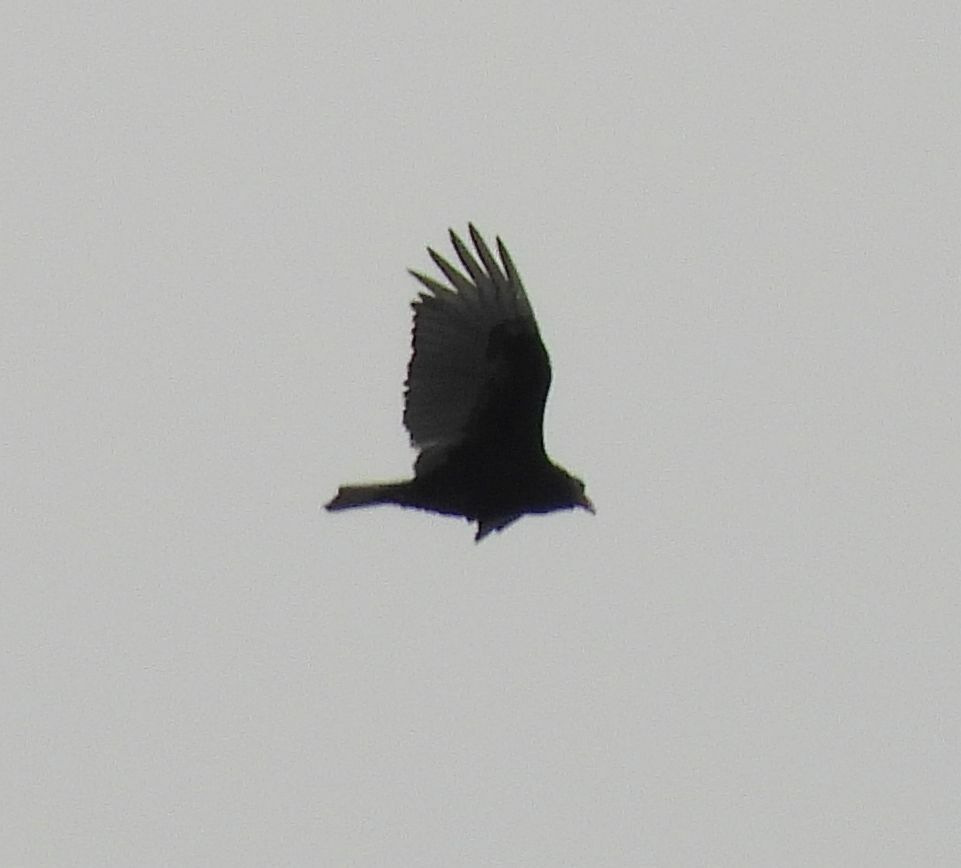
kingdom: Animalia
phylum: Chordata
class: Aves
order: Accipitriformes
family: Cathartidae
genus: Cathartes
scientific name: Cathartes aura
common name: Turkey vulture
